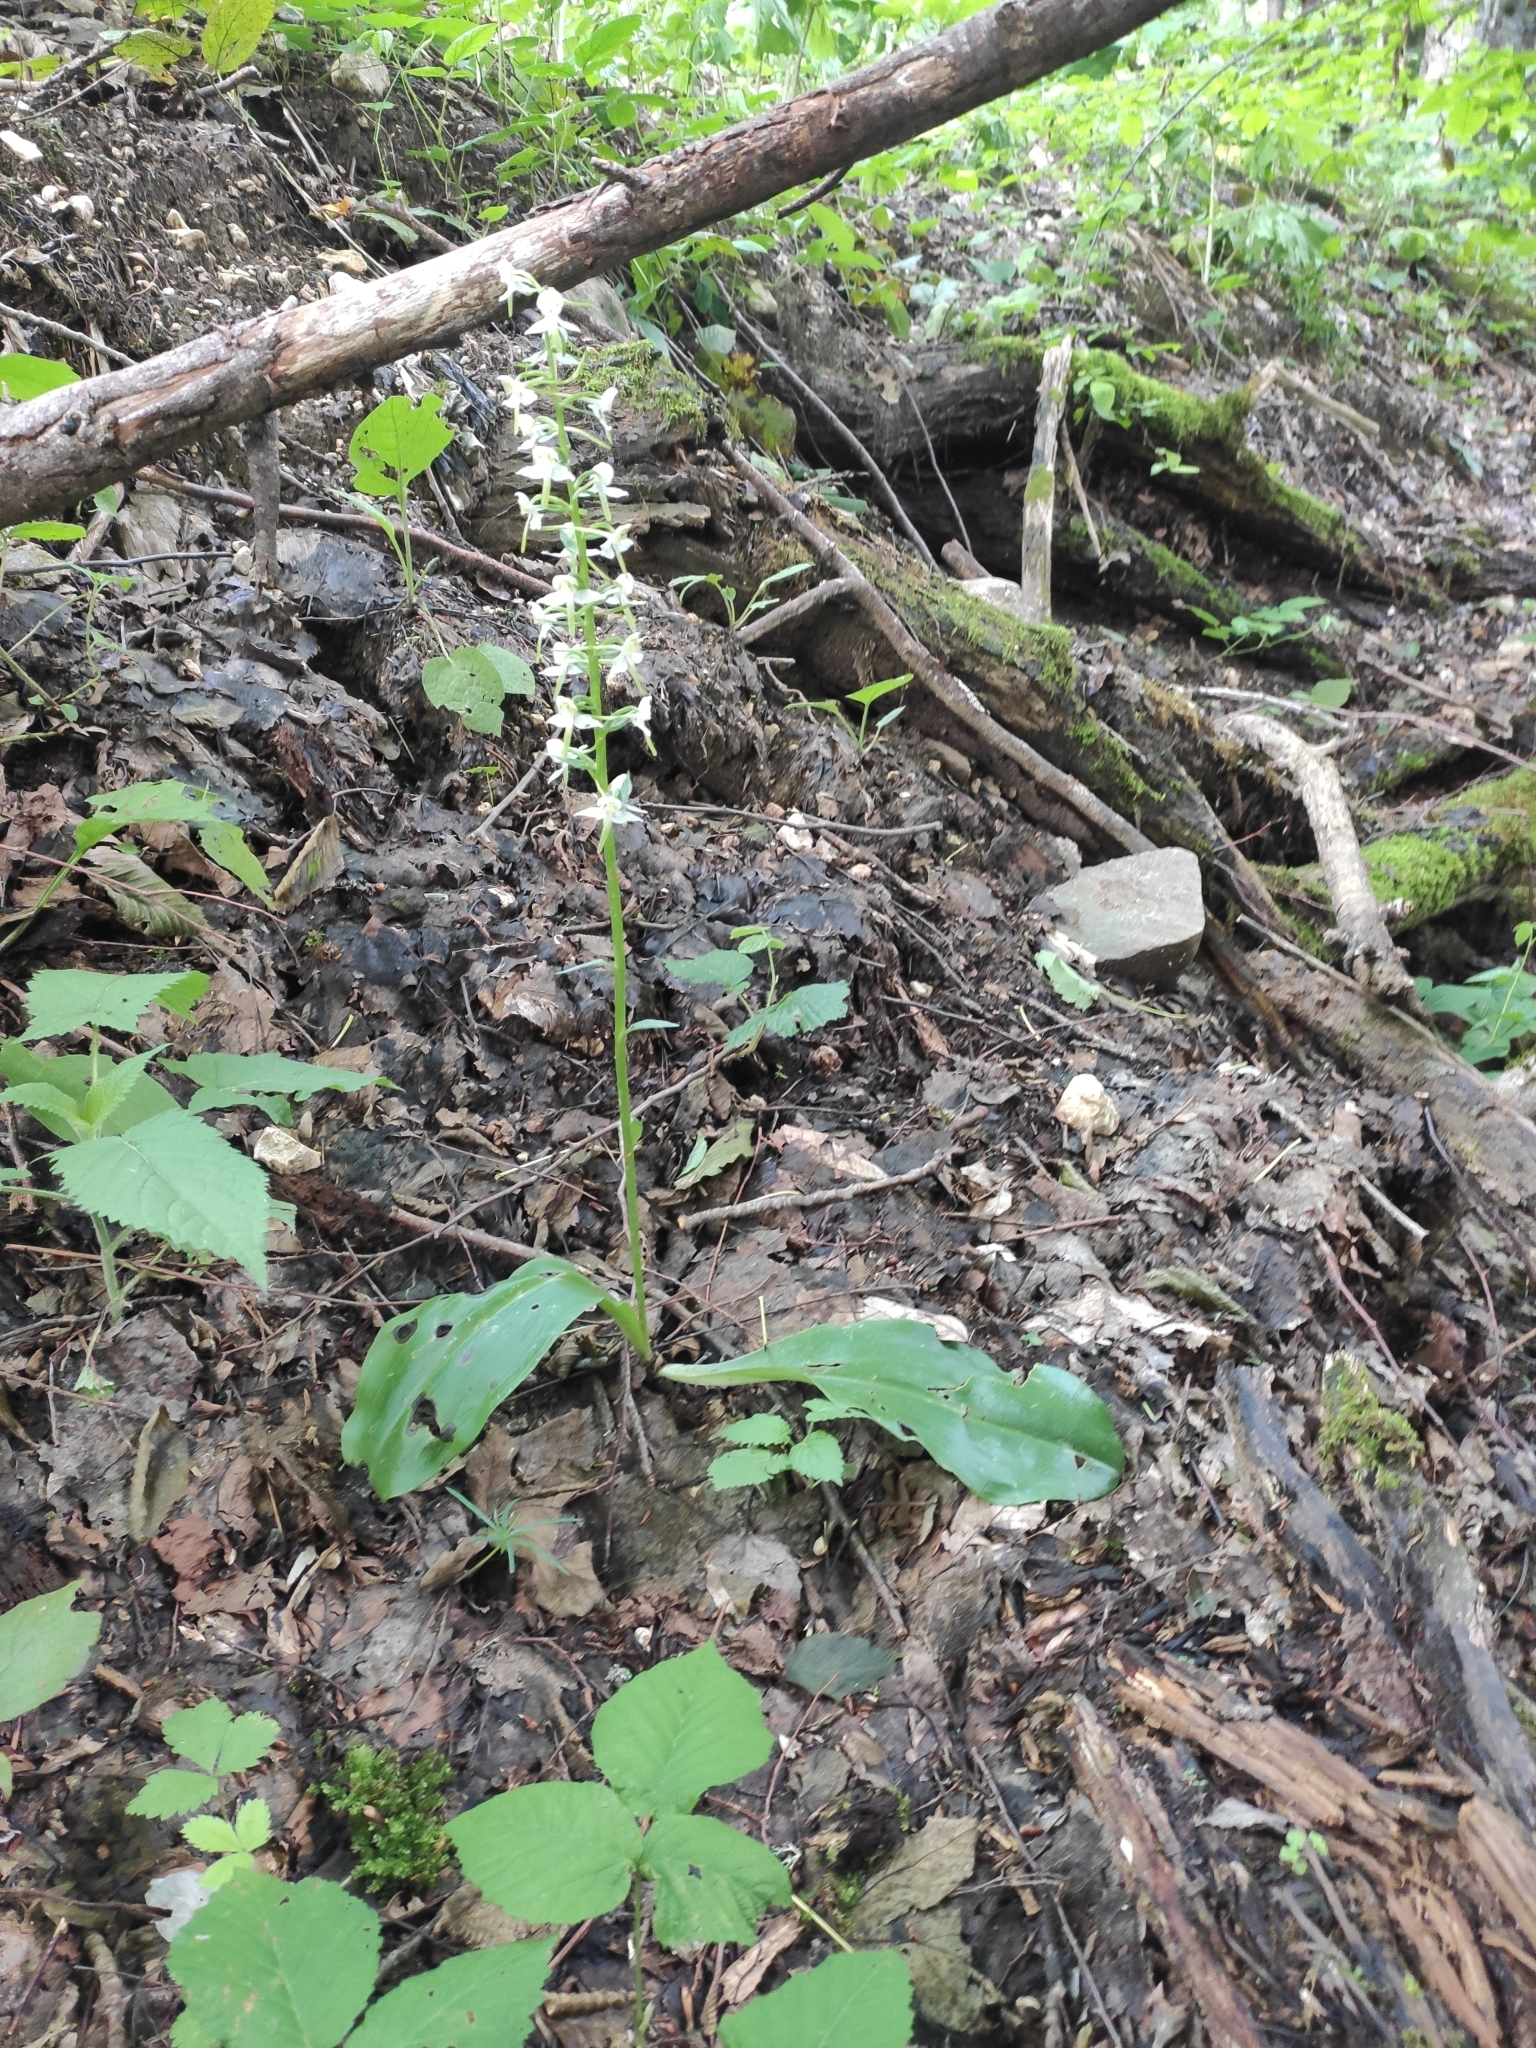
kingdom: Plantae
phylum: Tracheophyta
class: Liliopsida
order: Asparagales
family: Orchidaceae
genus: Platanthera
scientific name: Platanthera chlorantha
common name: Greater butterfly-orchid
